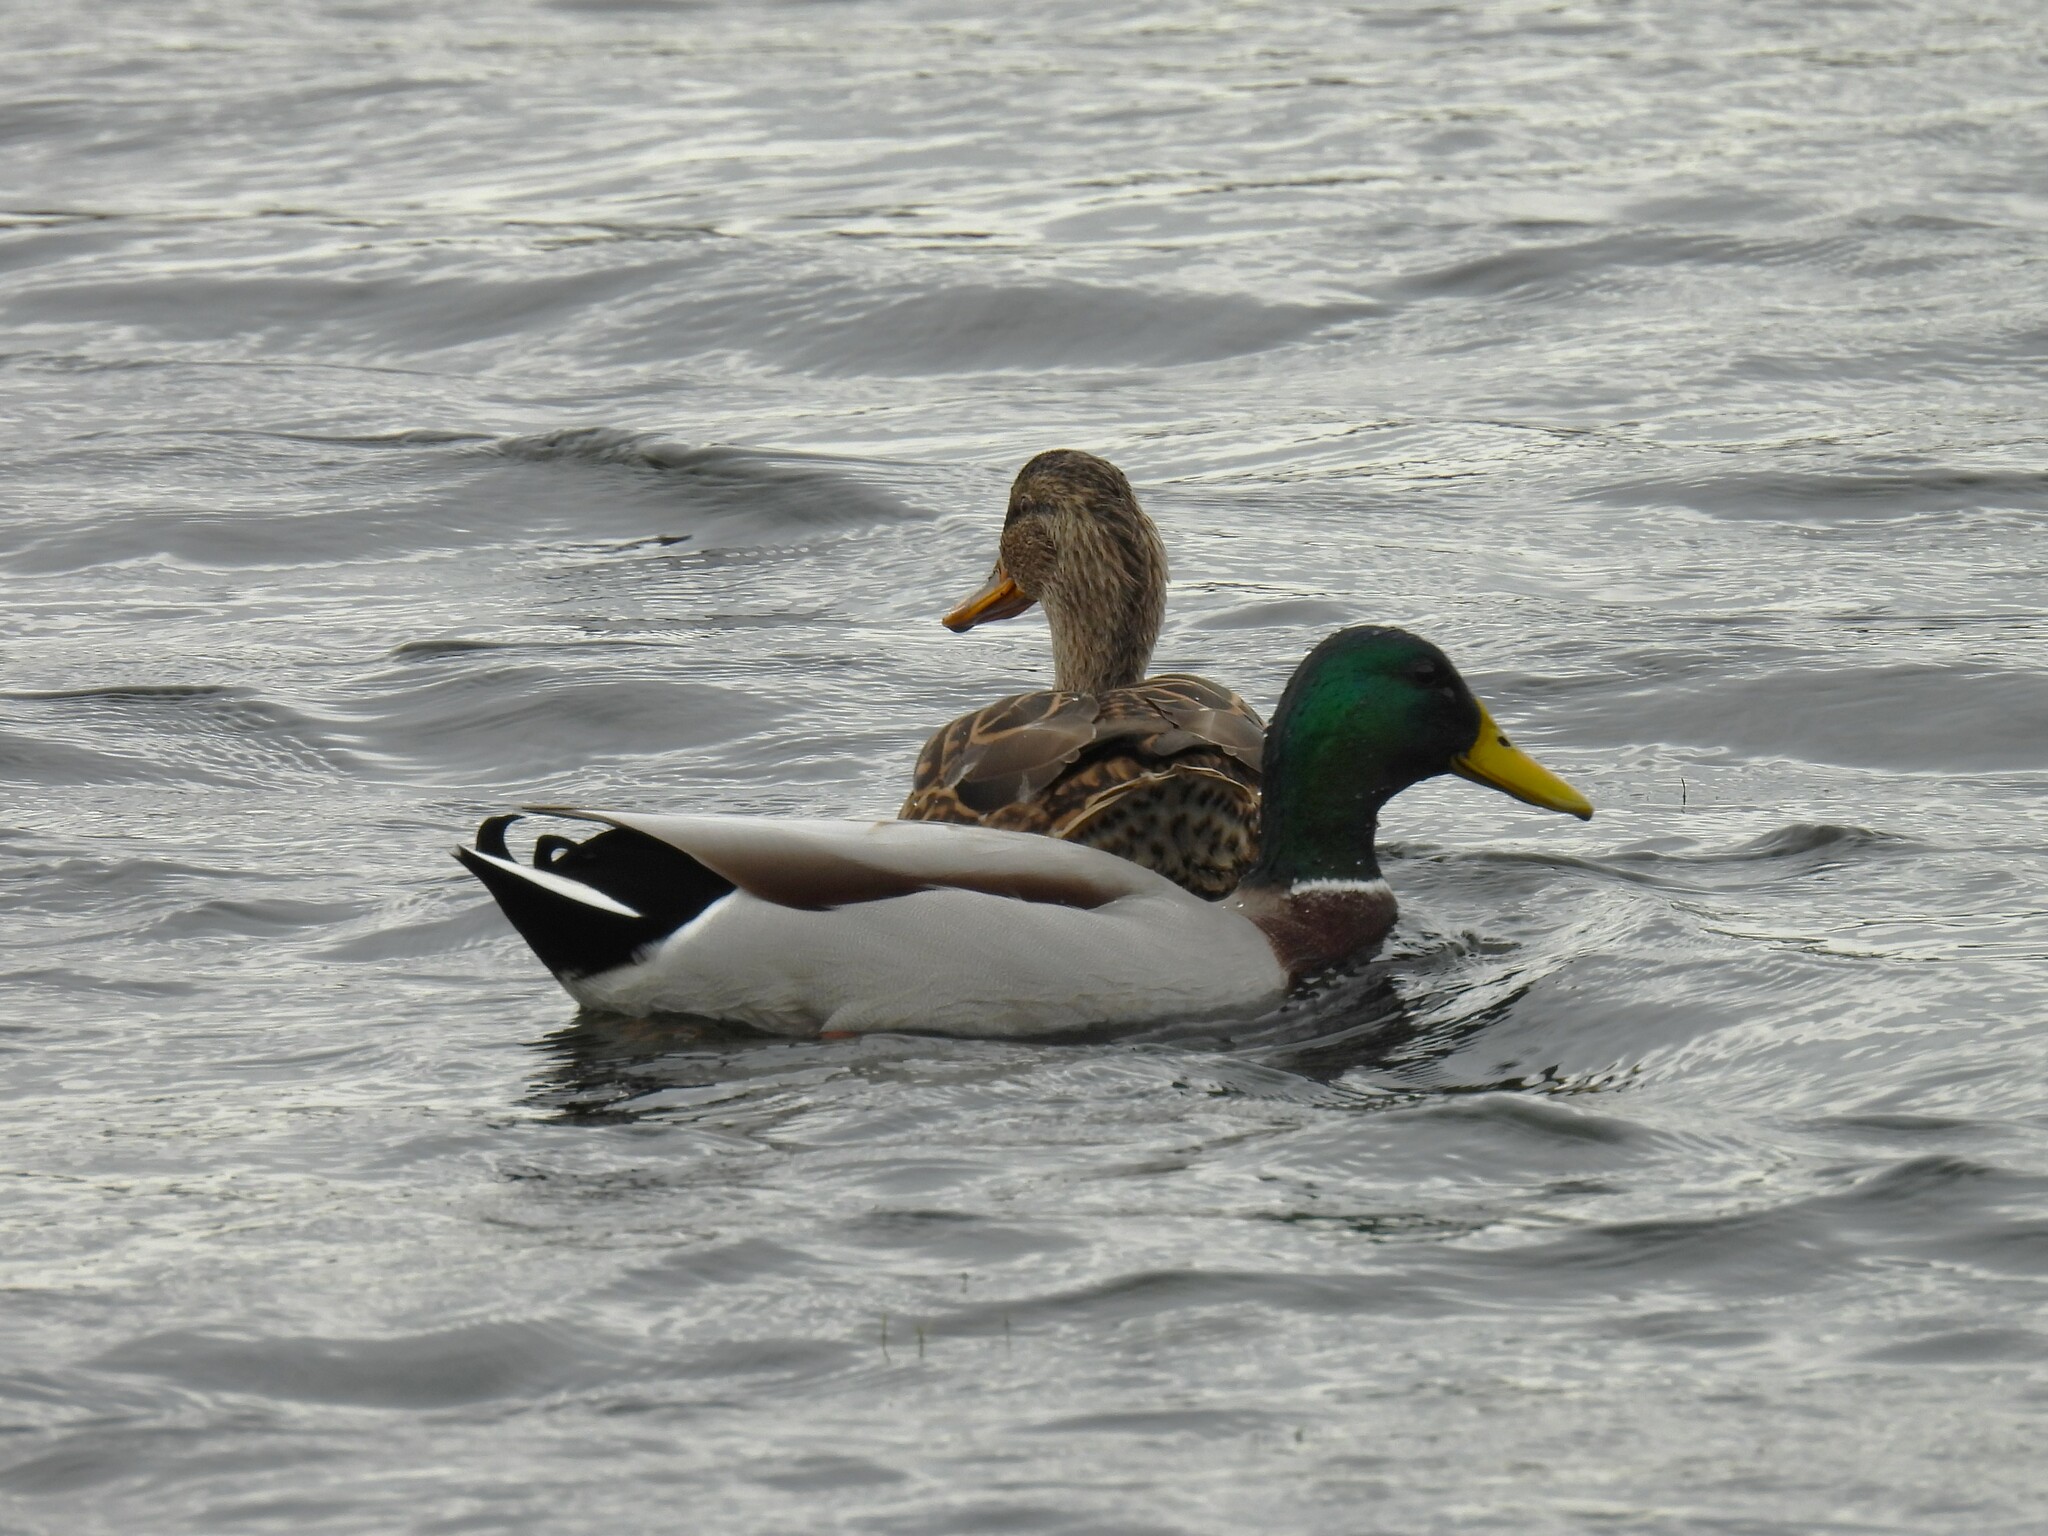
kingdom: Animalia
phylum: Chordata
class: Aves
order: Anseriformes
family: Anatidae
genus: Anas
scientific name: Anas platyrhynchos
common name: Mallard
